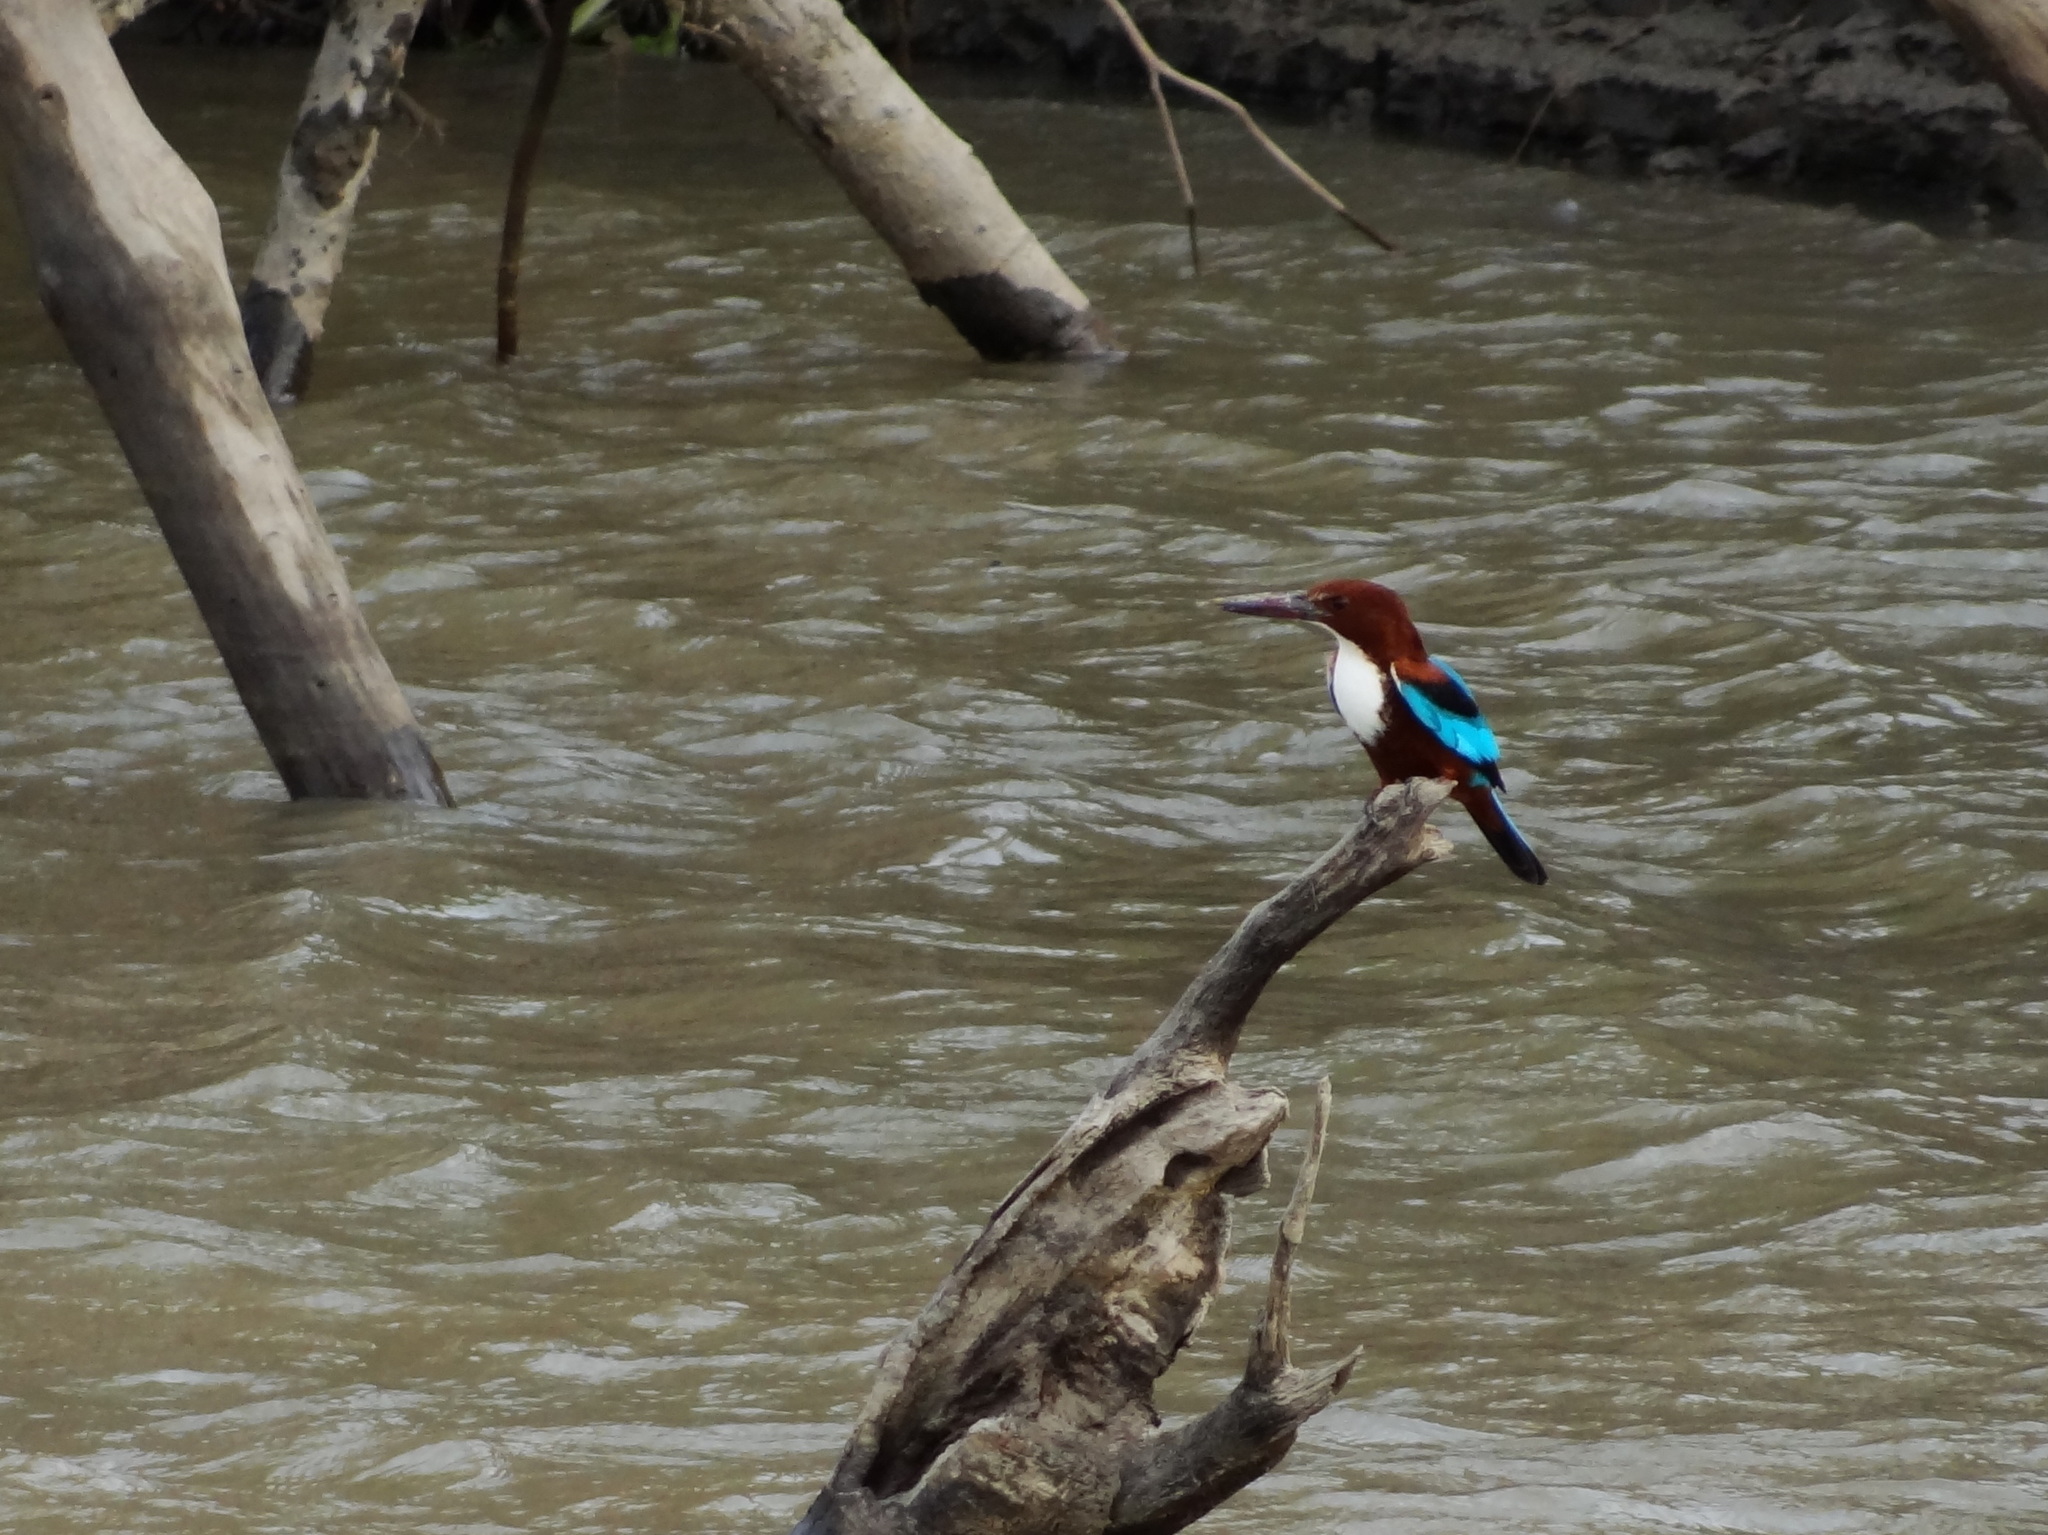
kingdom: Animalia
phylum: Chordata
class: Aves
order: Coraciiformes
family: Alcedinidae
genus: Halcyon
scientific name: Halcyon smyrnensis
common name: White-throated kingfisher
